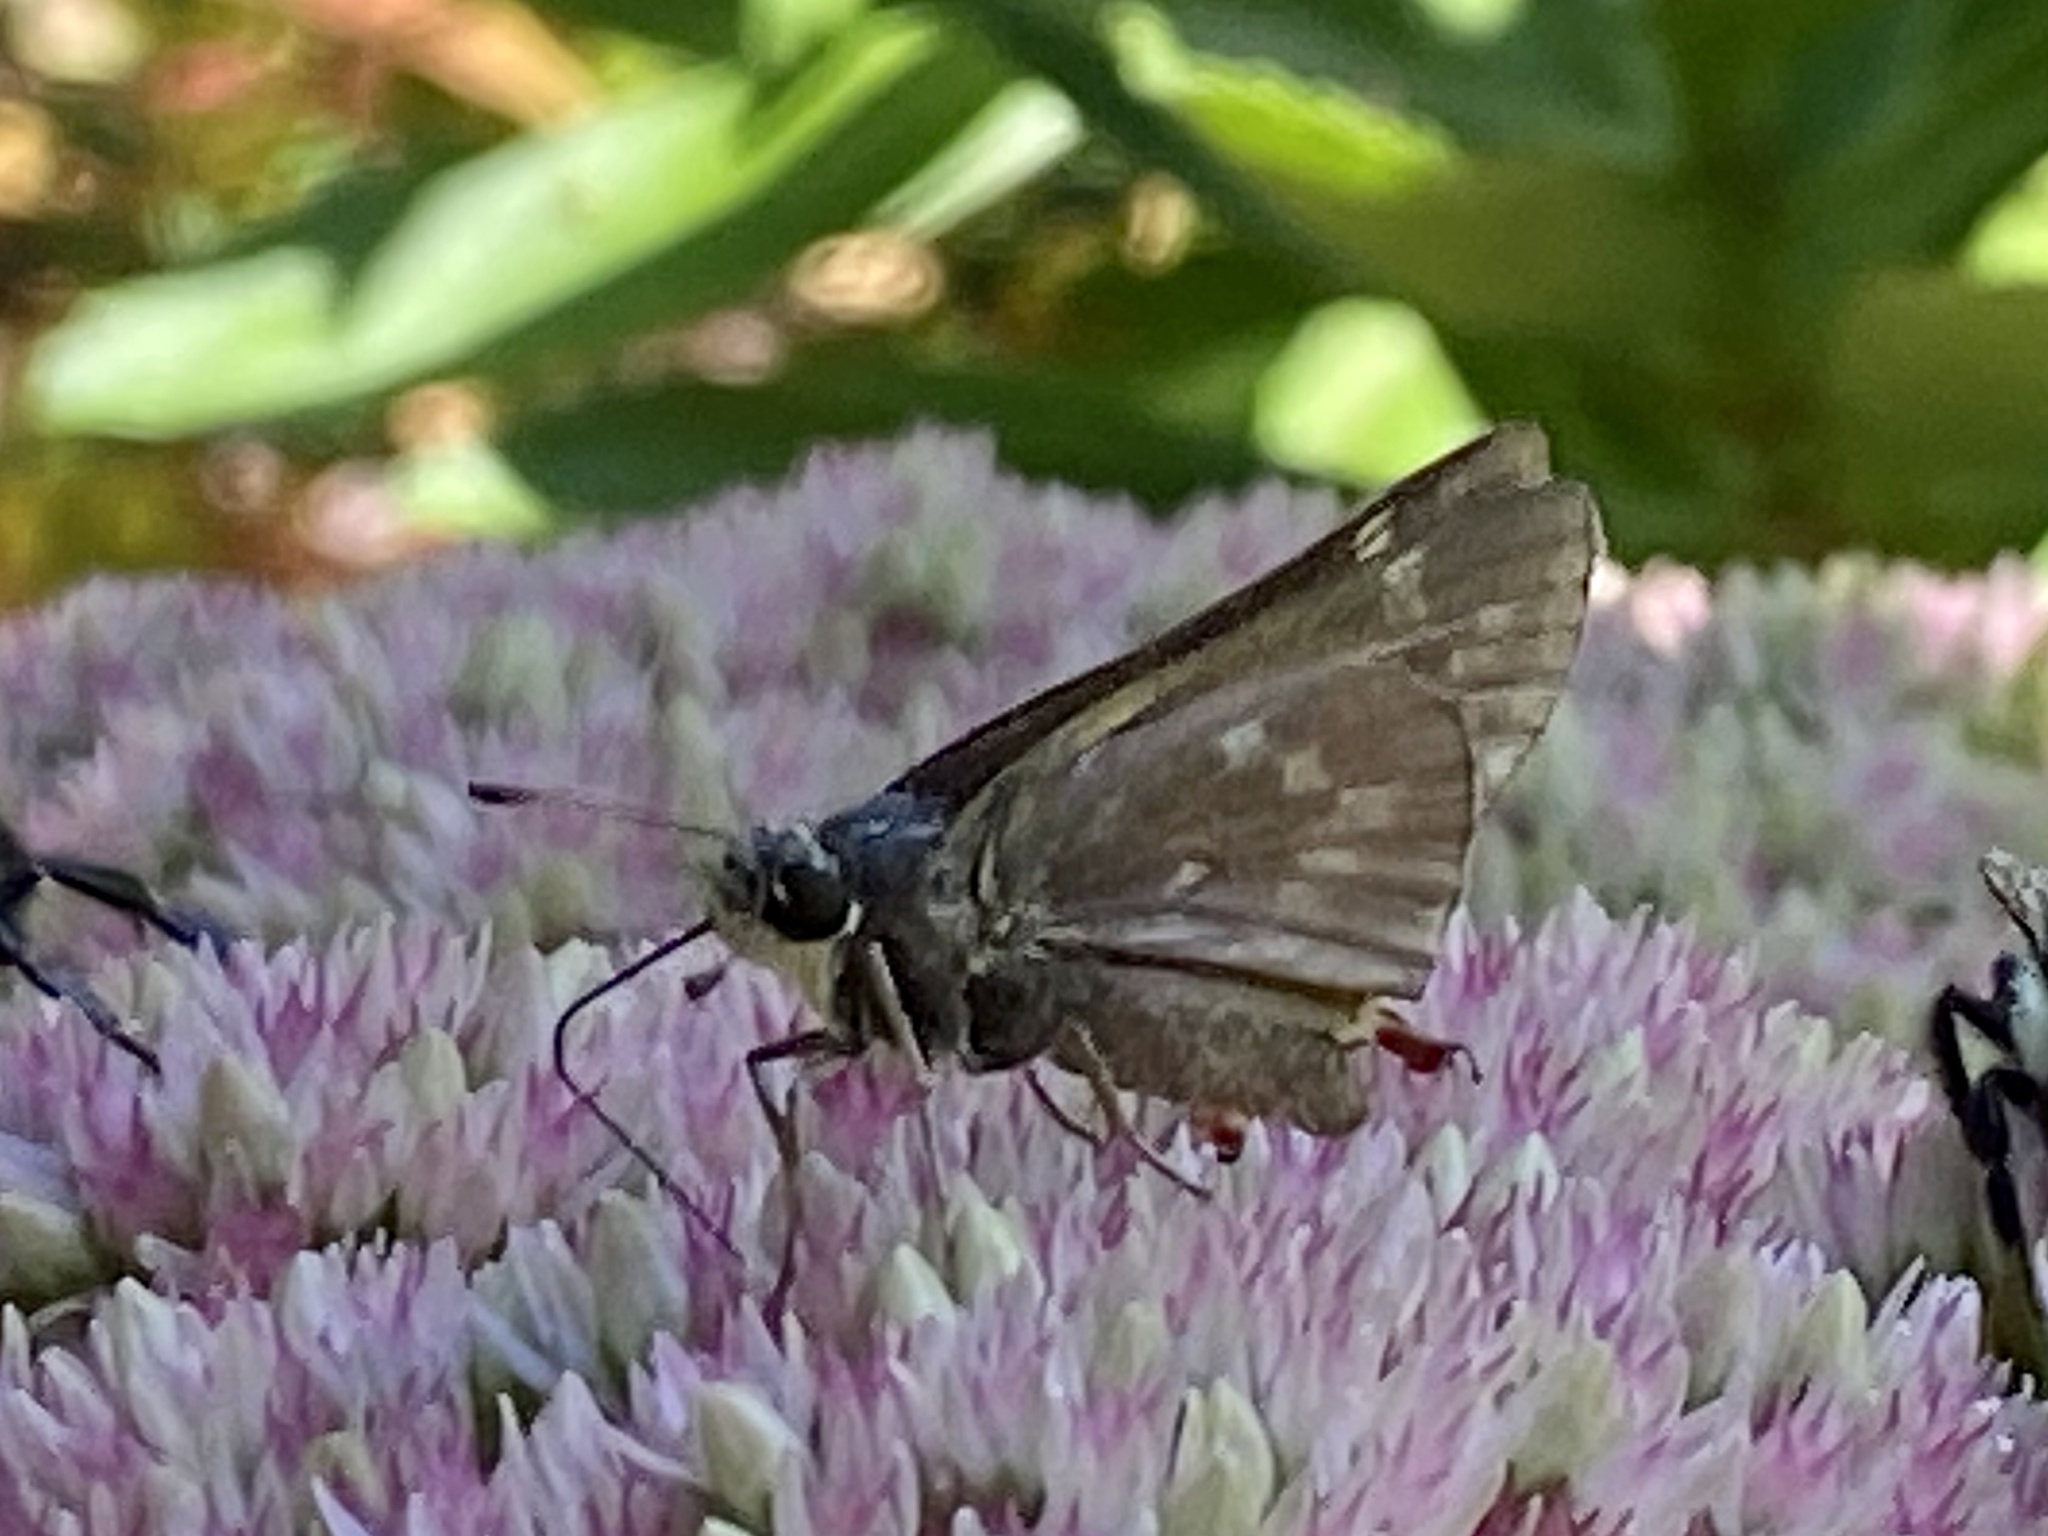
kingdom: Animalia
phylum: Arthropoda
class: Insecta
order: Lepidoptera
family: Hesperiidae
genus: Atalopedes
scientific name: Atalopedes
